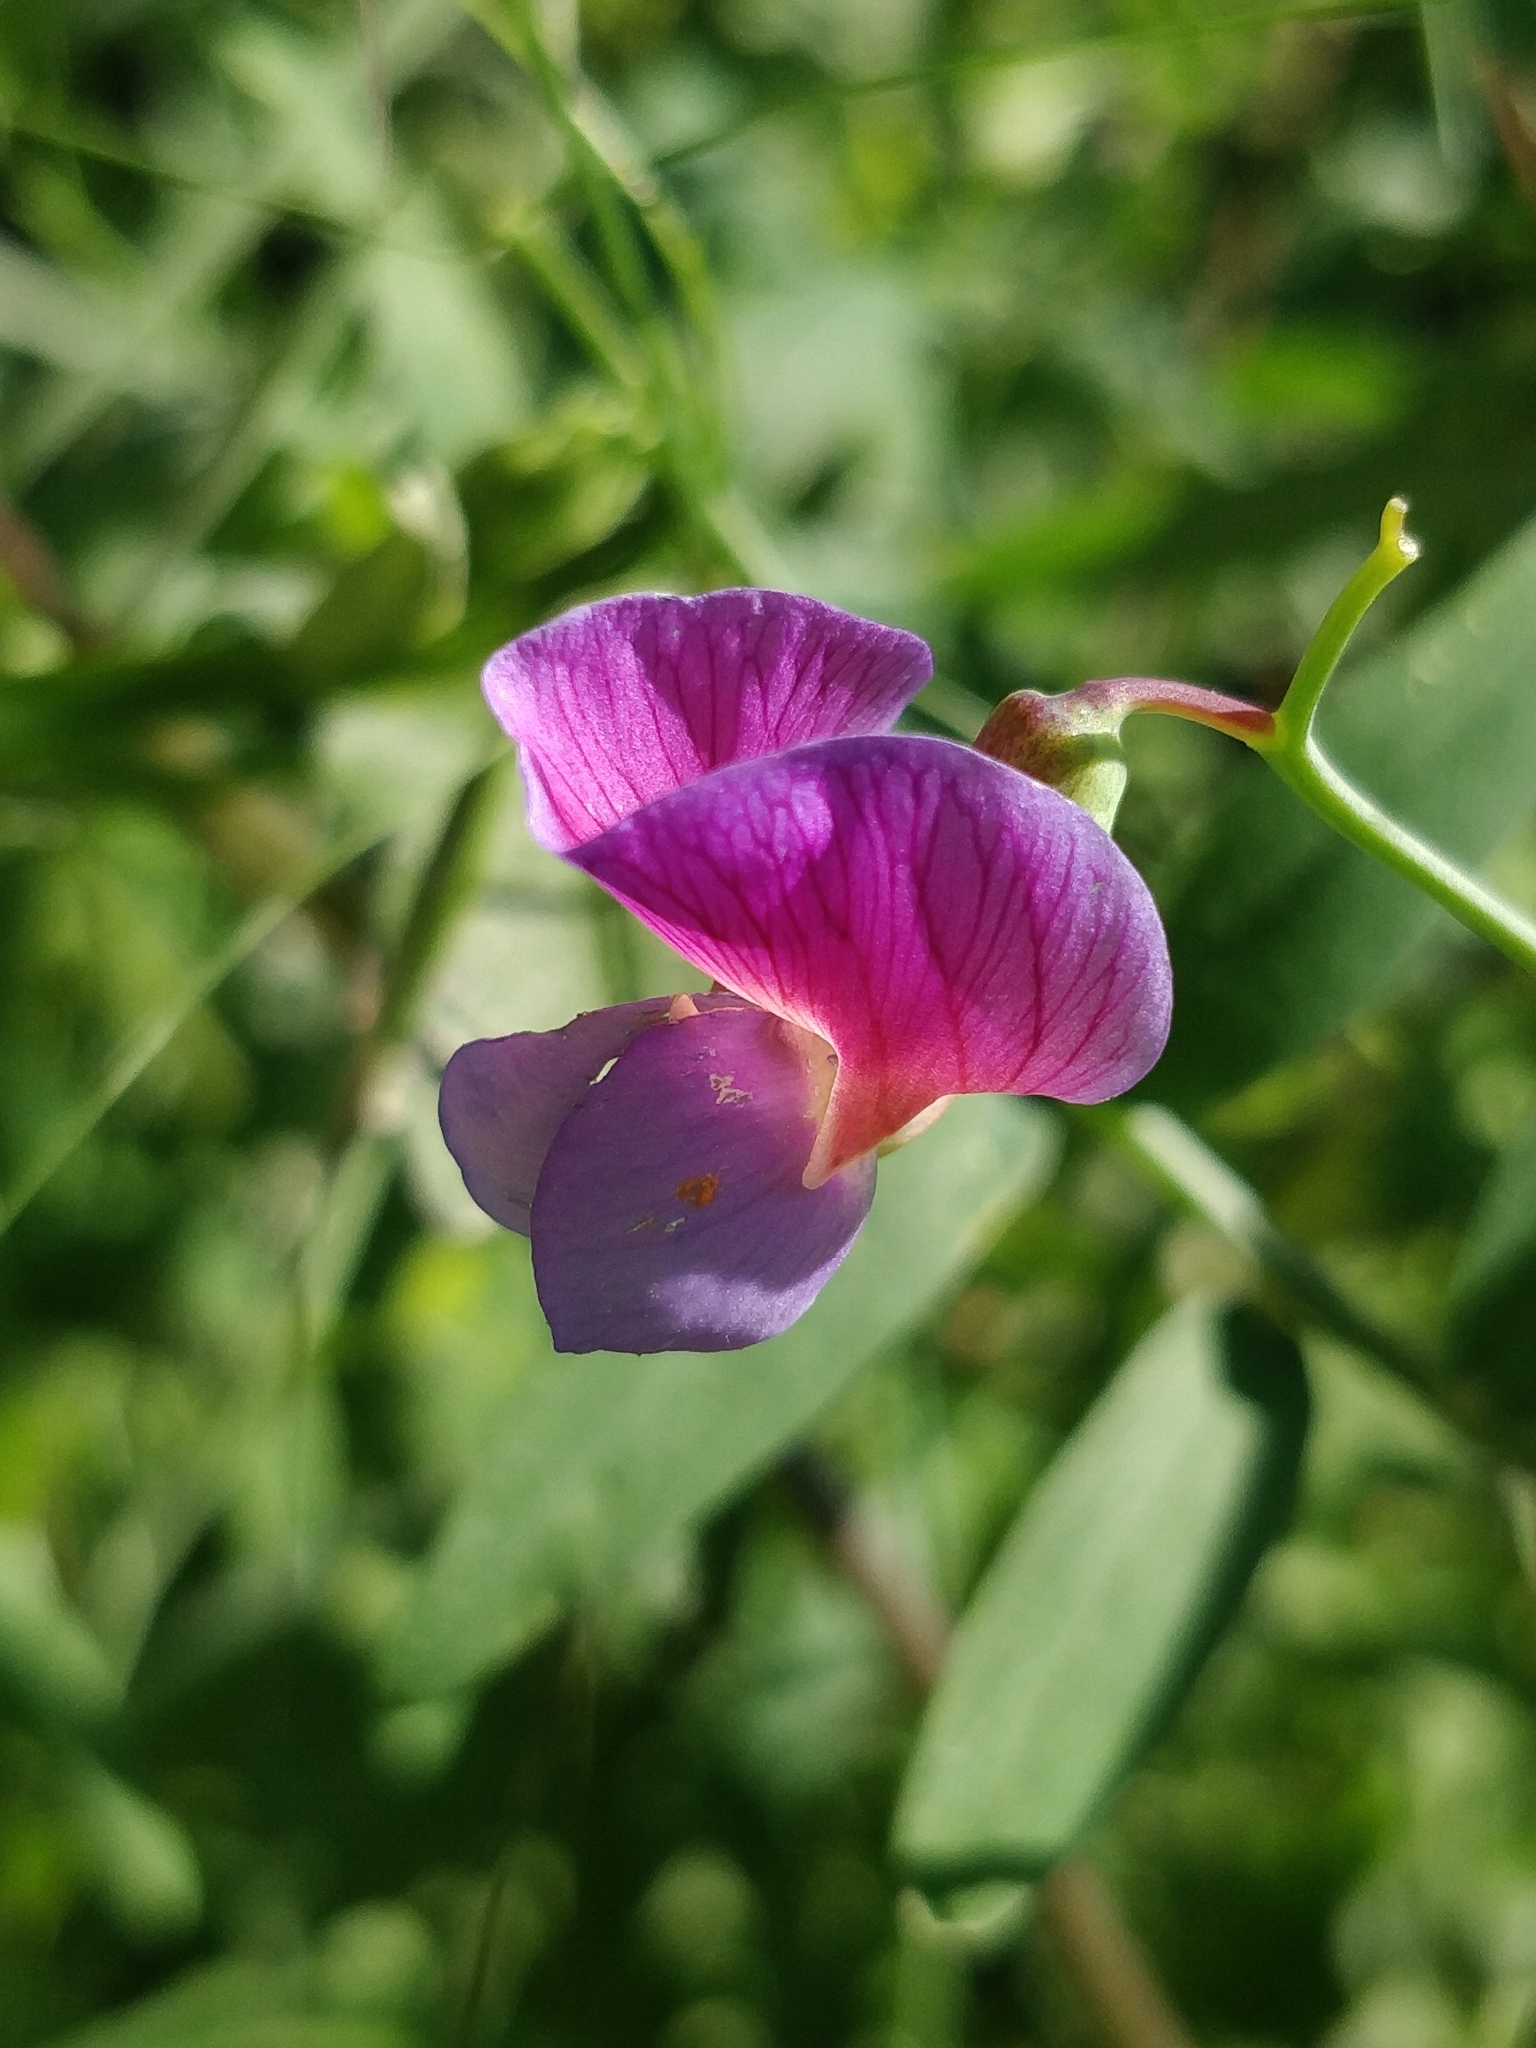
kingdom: Plantae
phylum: Tracheophyta
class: Magnoliopsida
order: Fabales
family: Fabaceae
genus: Lathyrus
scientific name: Lathyrus clymenum
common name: Spanish vetchling
